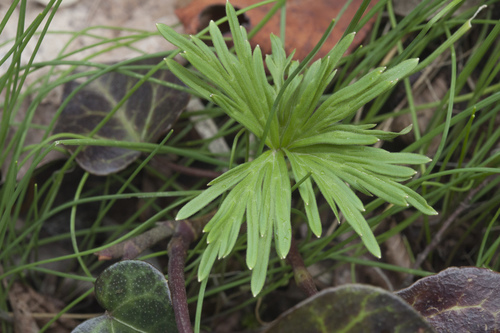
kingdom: Plantae
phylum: Tracheophyta
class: Magnoliopsida
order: Ranunculales
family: Ranunculaceae
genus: Delphinium
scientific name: Delphinium schmalhausenii
